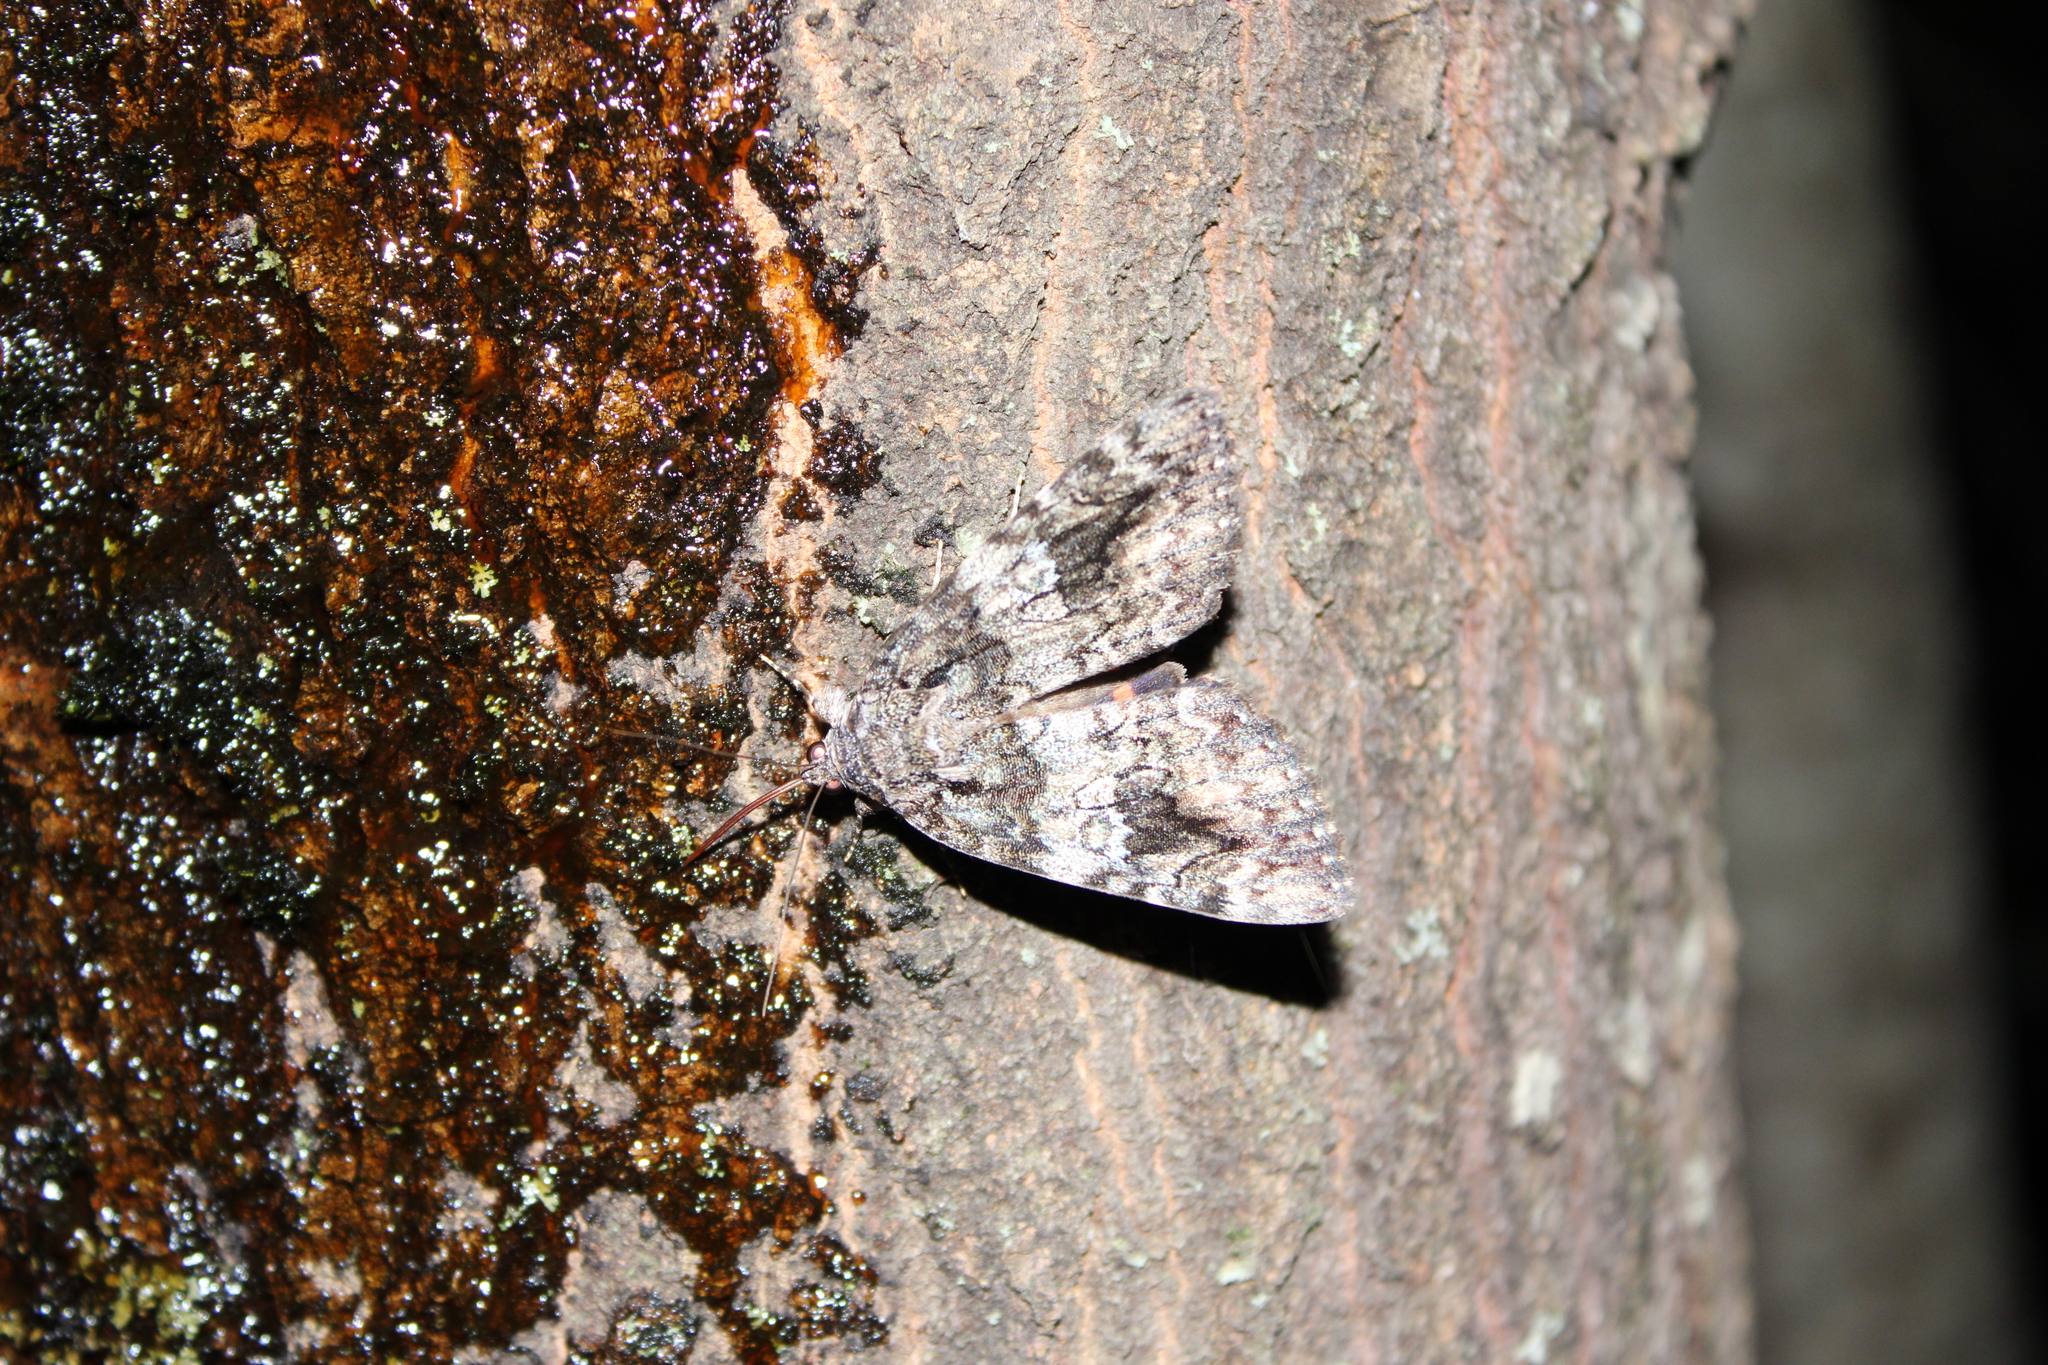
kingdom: Animalia
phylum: Arthropoda
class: Insecta
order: Lepidoptera
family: Erebidae
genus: Catocala
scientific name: Catocala ilia
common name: Ilia underwing
